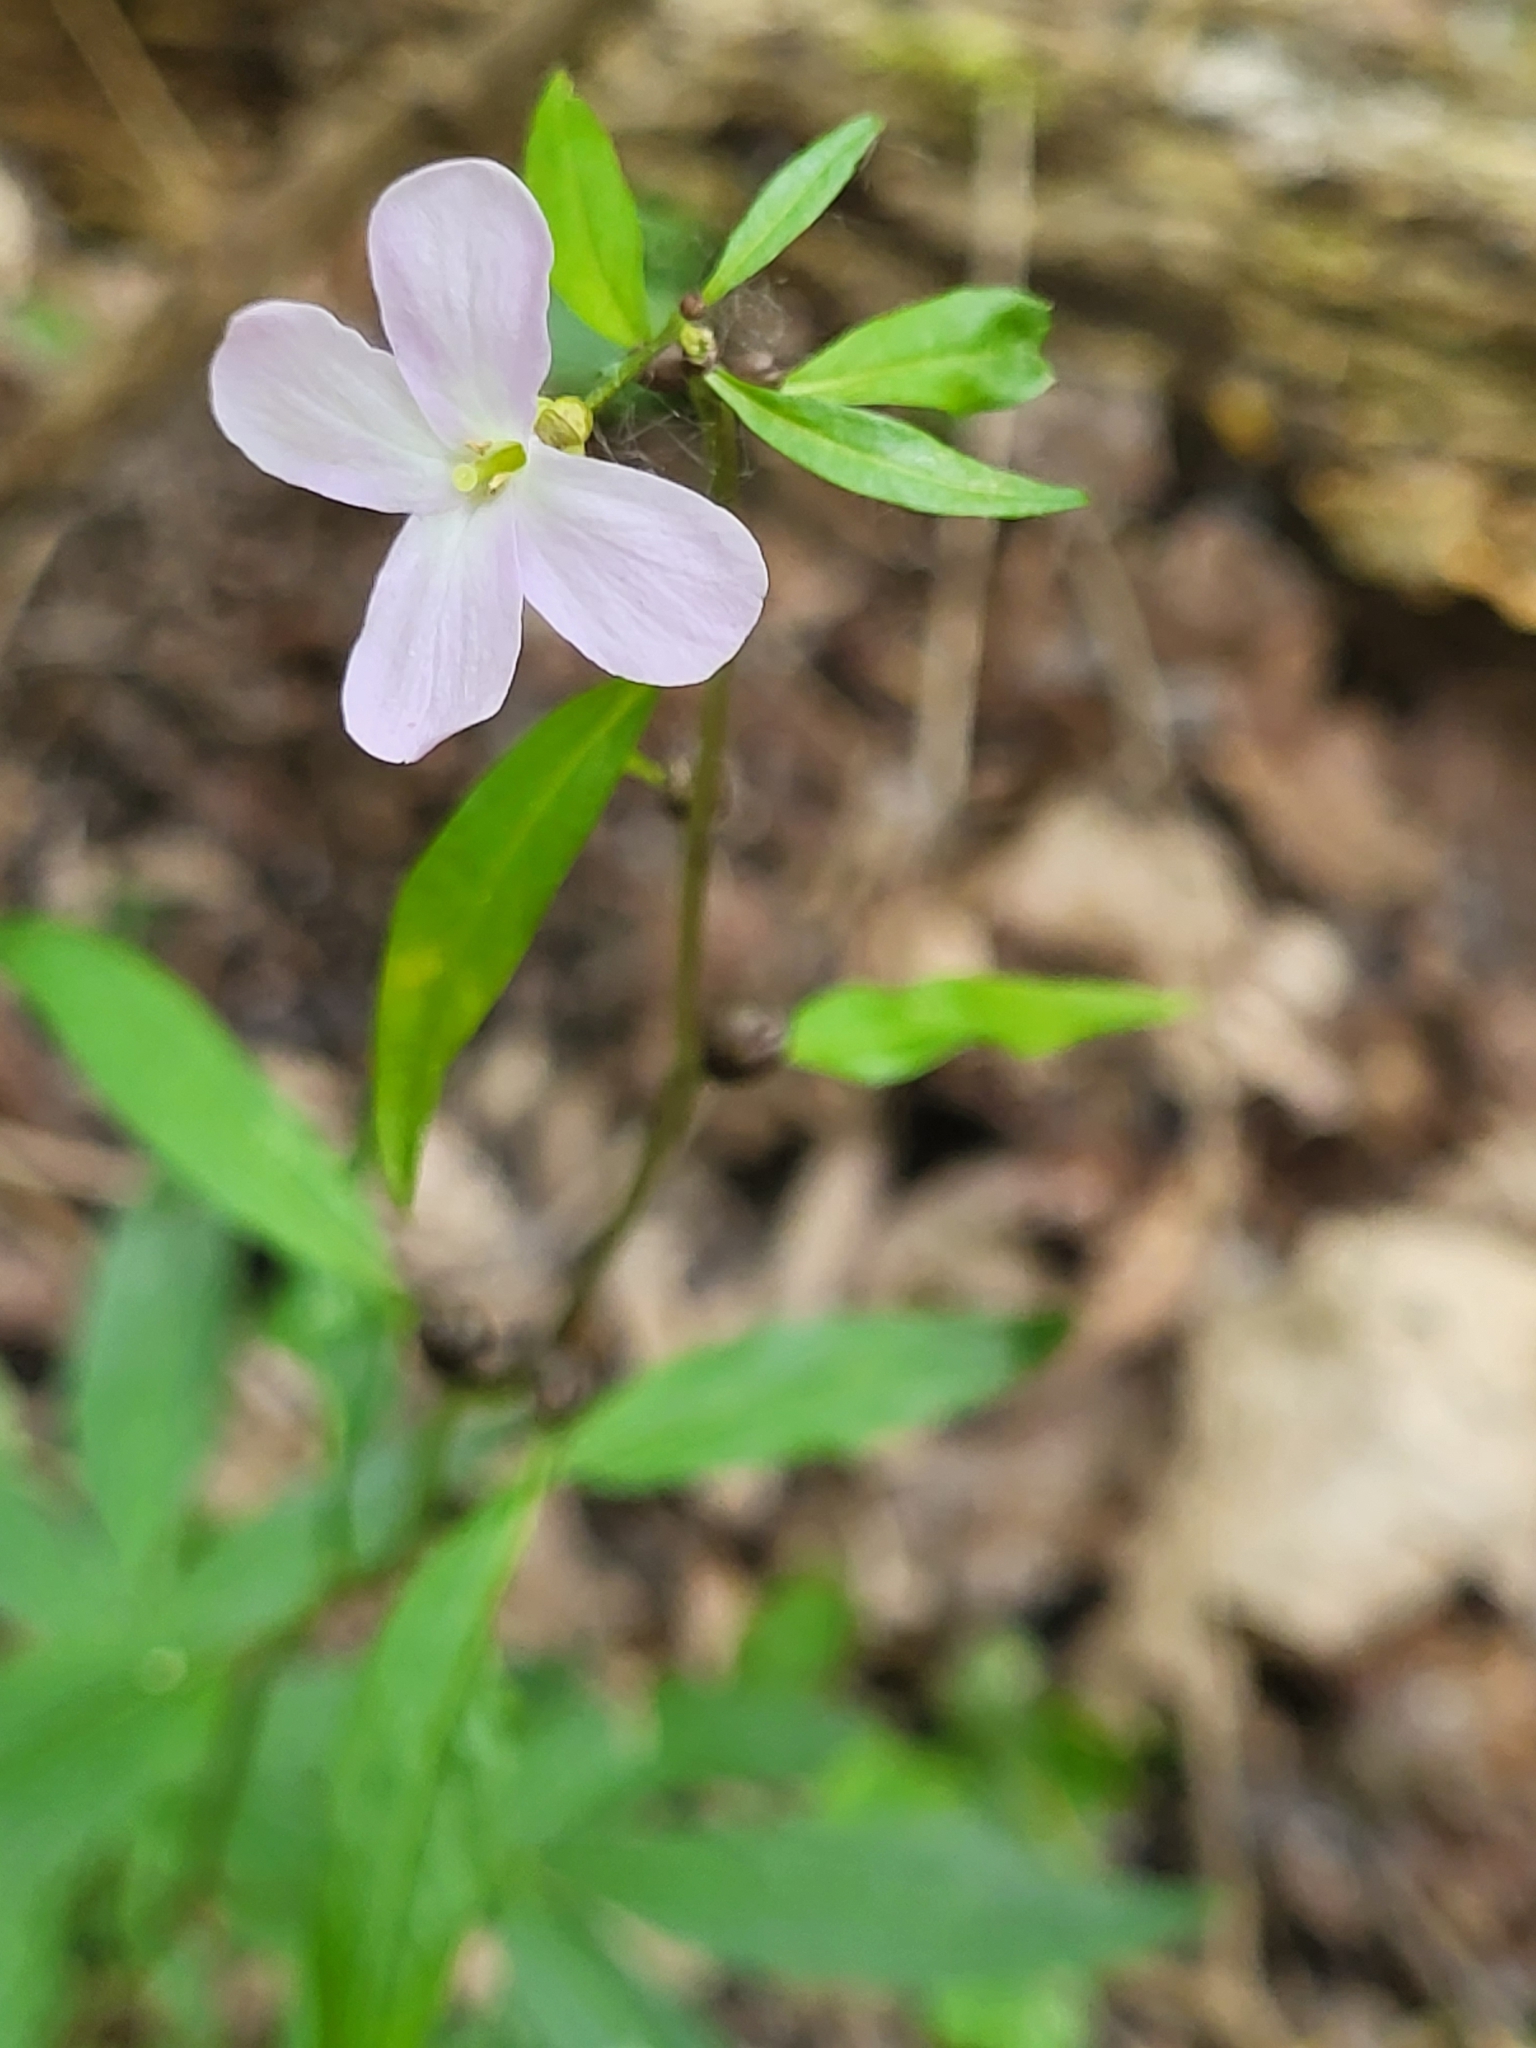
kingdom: Plantae
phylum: Tracheophyta
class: Magnoliopsida
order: Brassicales
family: Brassicaceae
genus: Cardamine
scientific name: Cardamine bulbifera
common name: Coralroot bittercress
